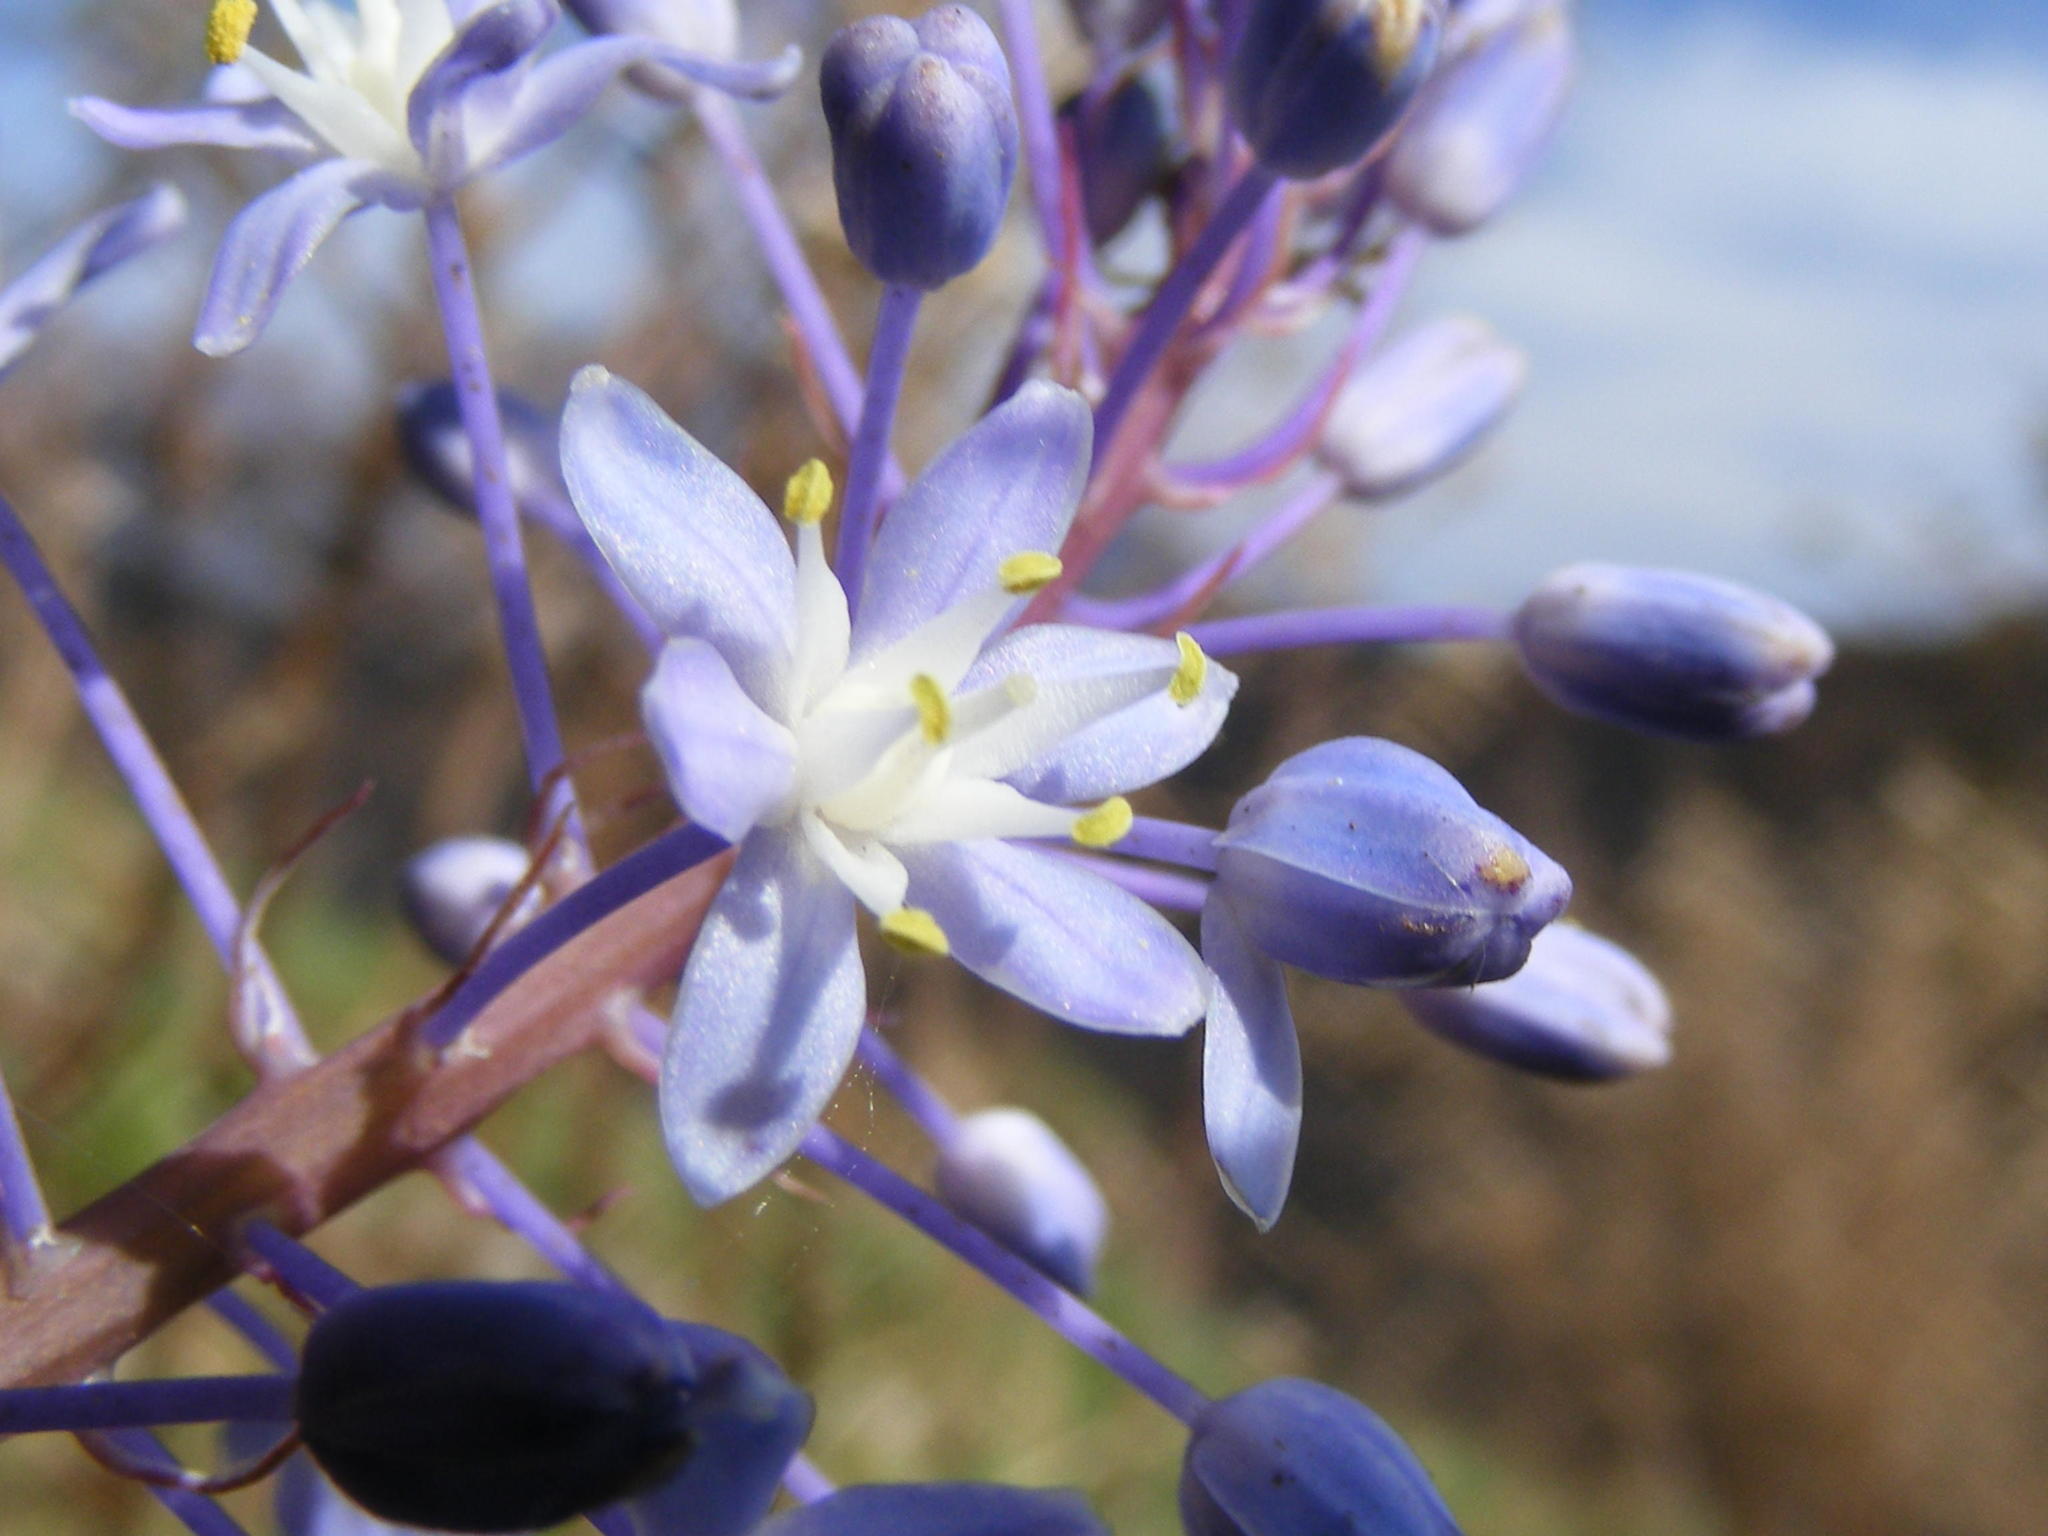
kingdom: Plantae
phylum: Tracheophyta
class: Liliopsida
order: Asparagales
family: Asparagaceae
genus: Merwilla
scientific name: Merwilla plumbea
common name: Blue-squill
